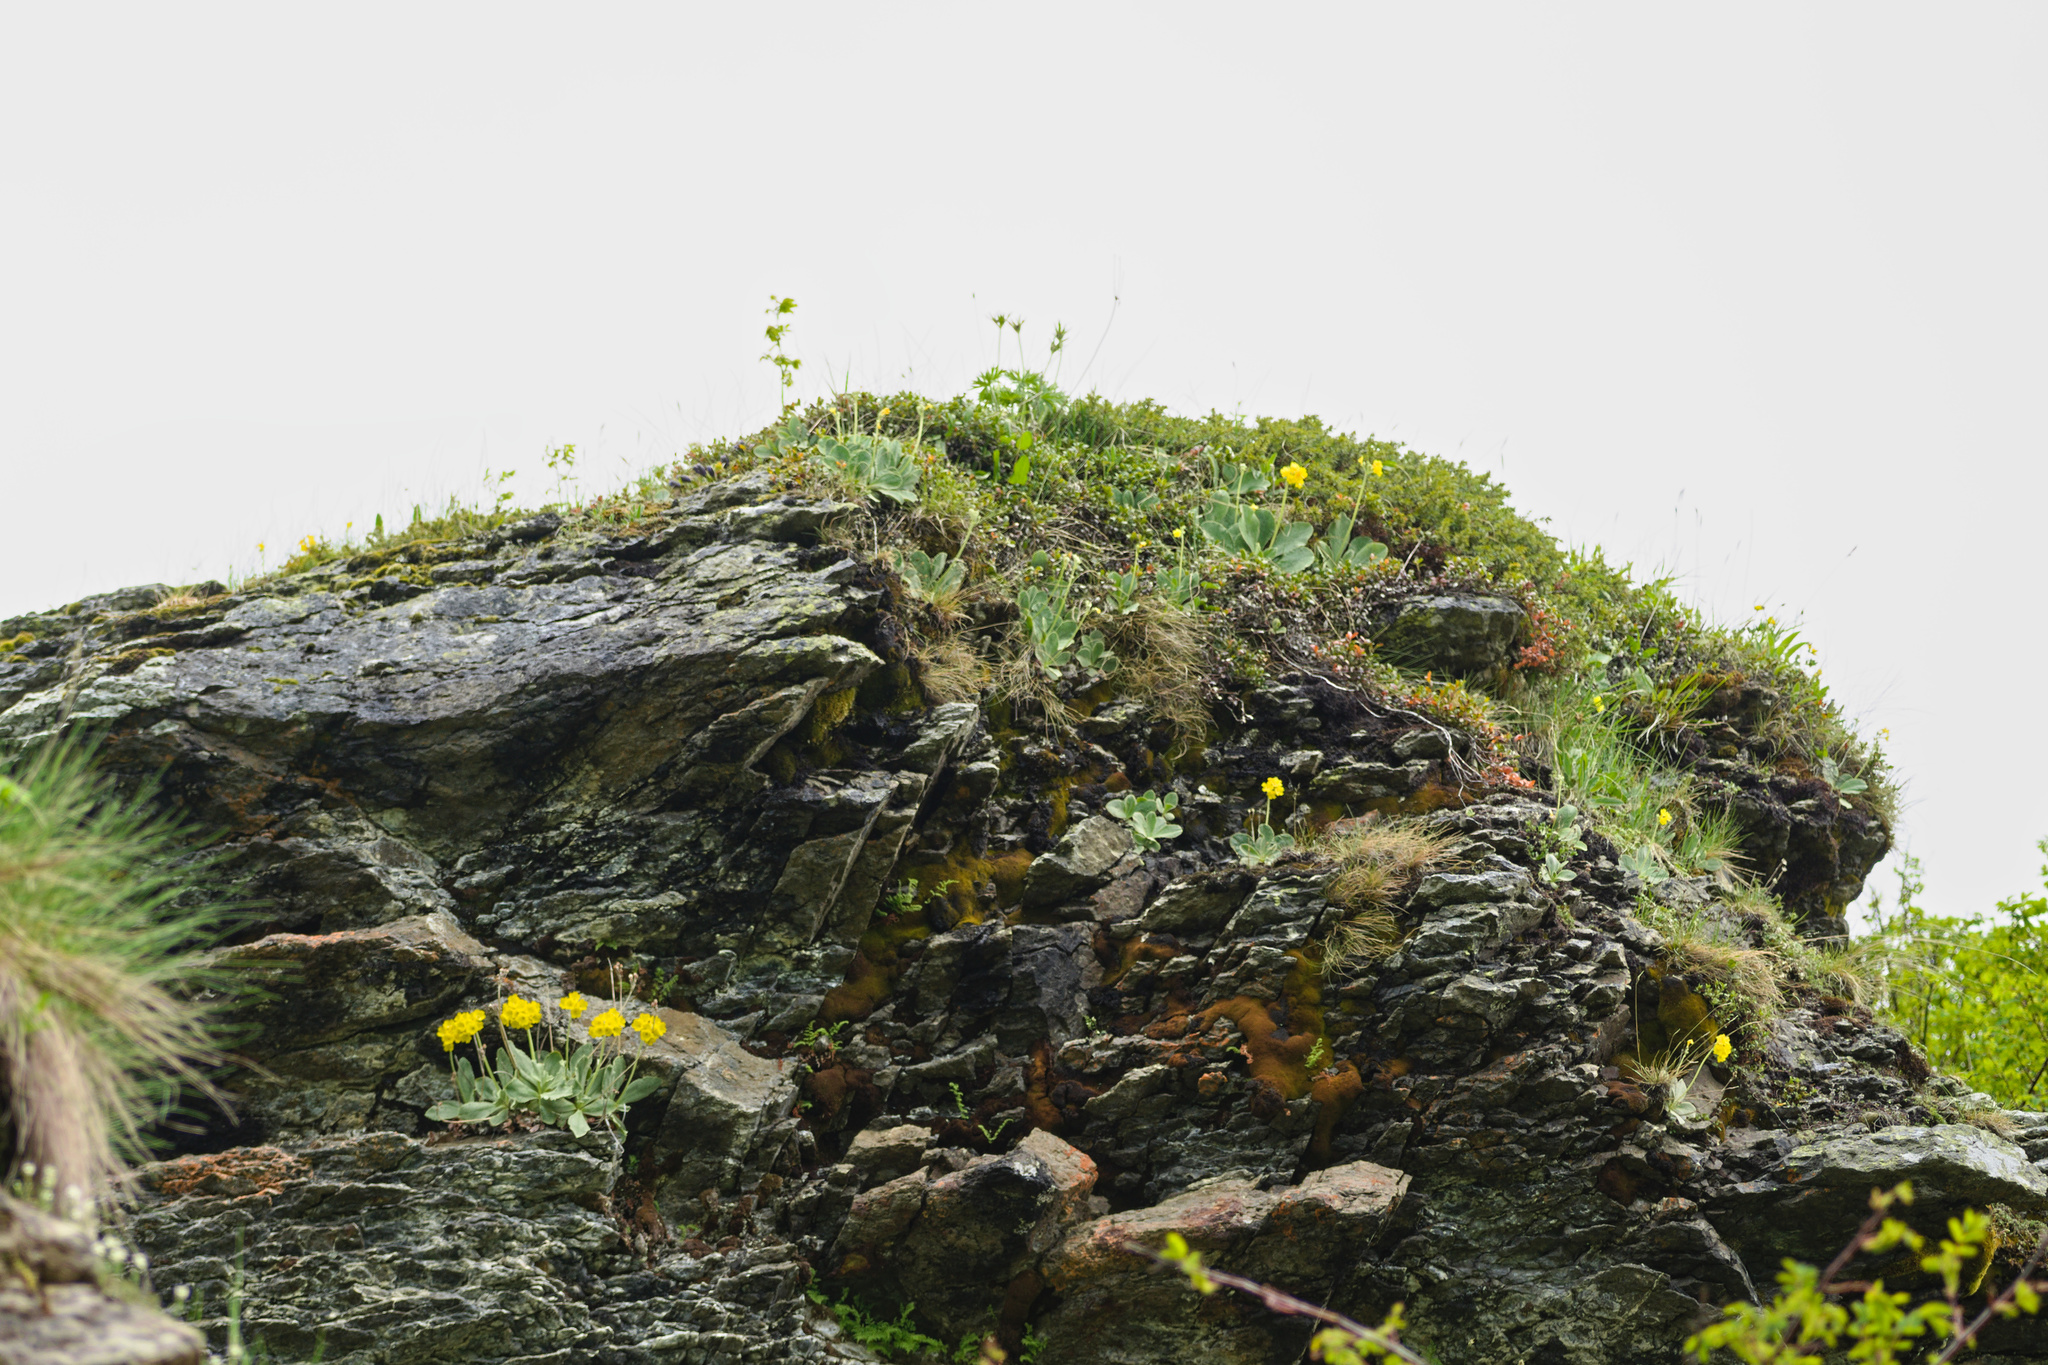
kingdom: Plantae
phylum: Tracheophyta
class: Magnoliopsida
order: Ericales
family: Primulaceae
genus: Primula
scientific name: Primula auricula
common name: Auricula
